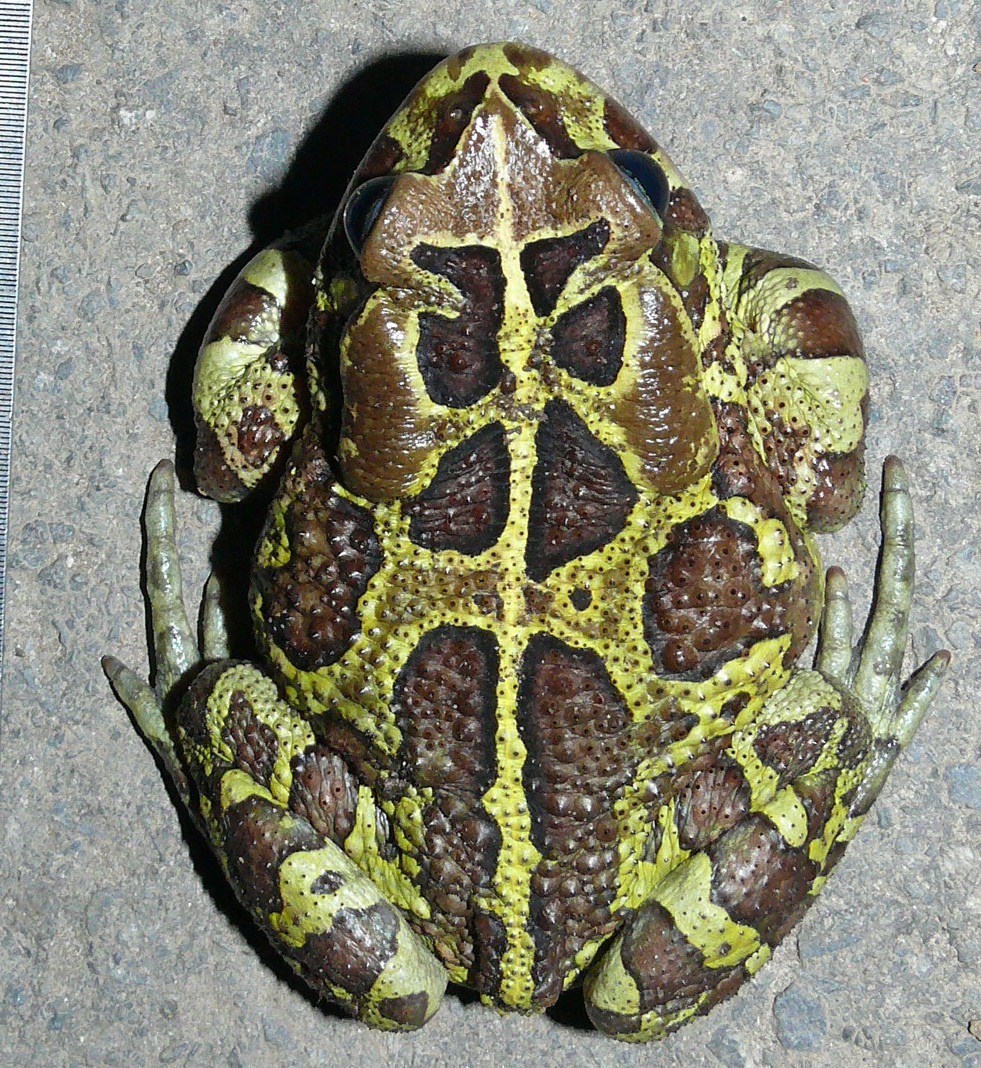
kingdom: Animalia
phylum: Chordata
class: Amphibia
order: Anura
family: Bufonidae
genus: Sclerophrys
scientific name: Sclerophrys pantherina
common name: Panther toad
